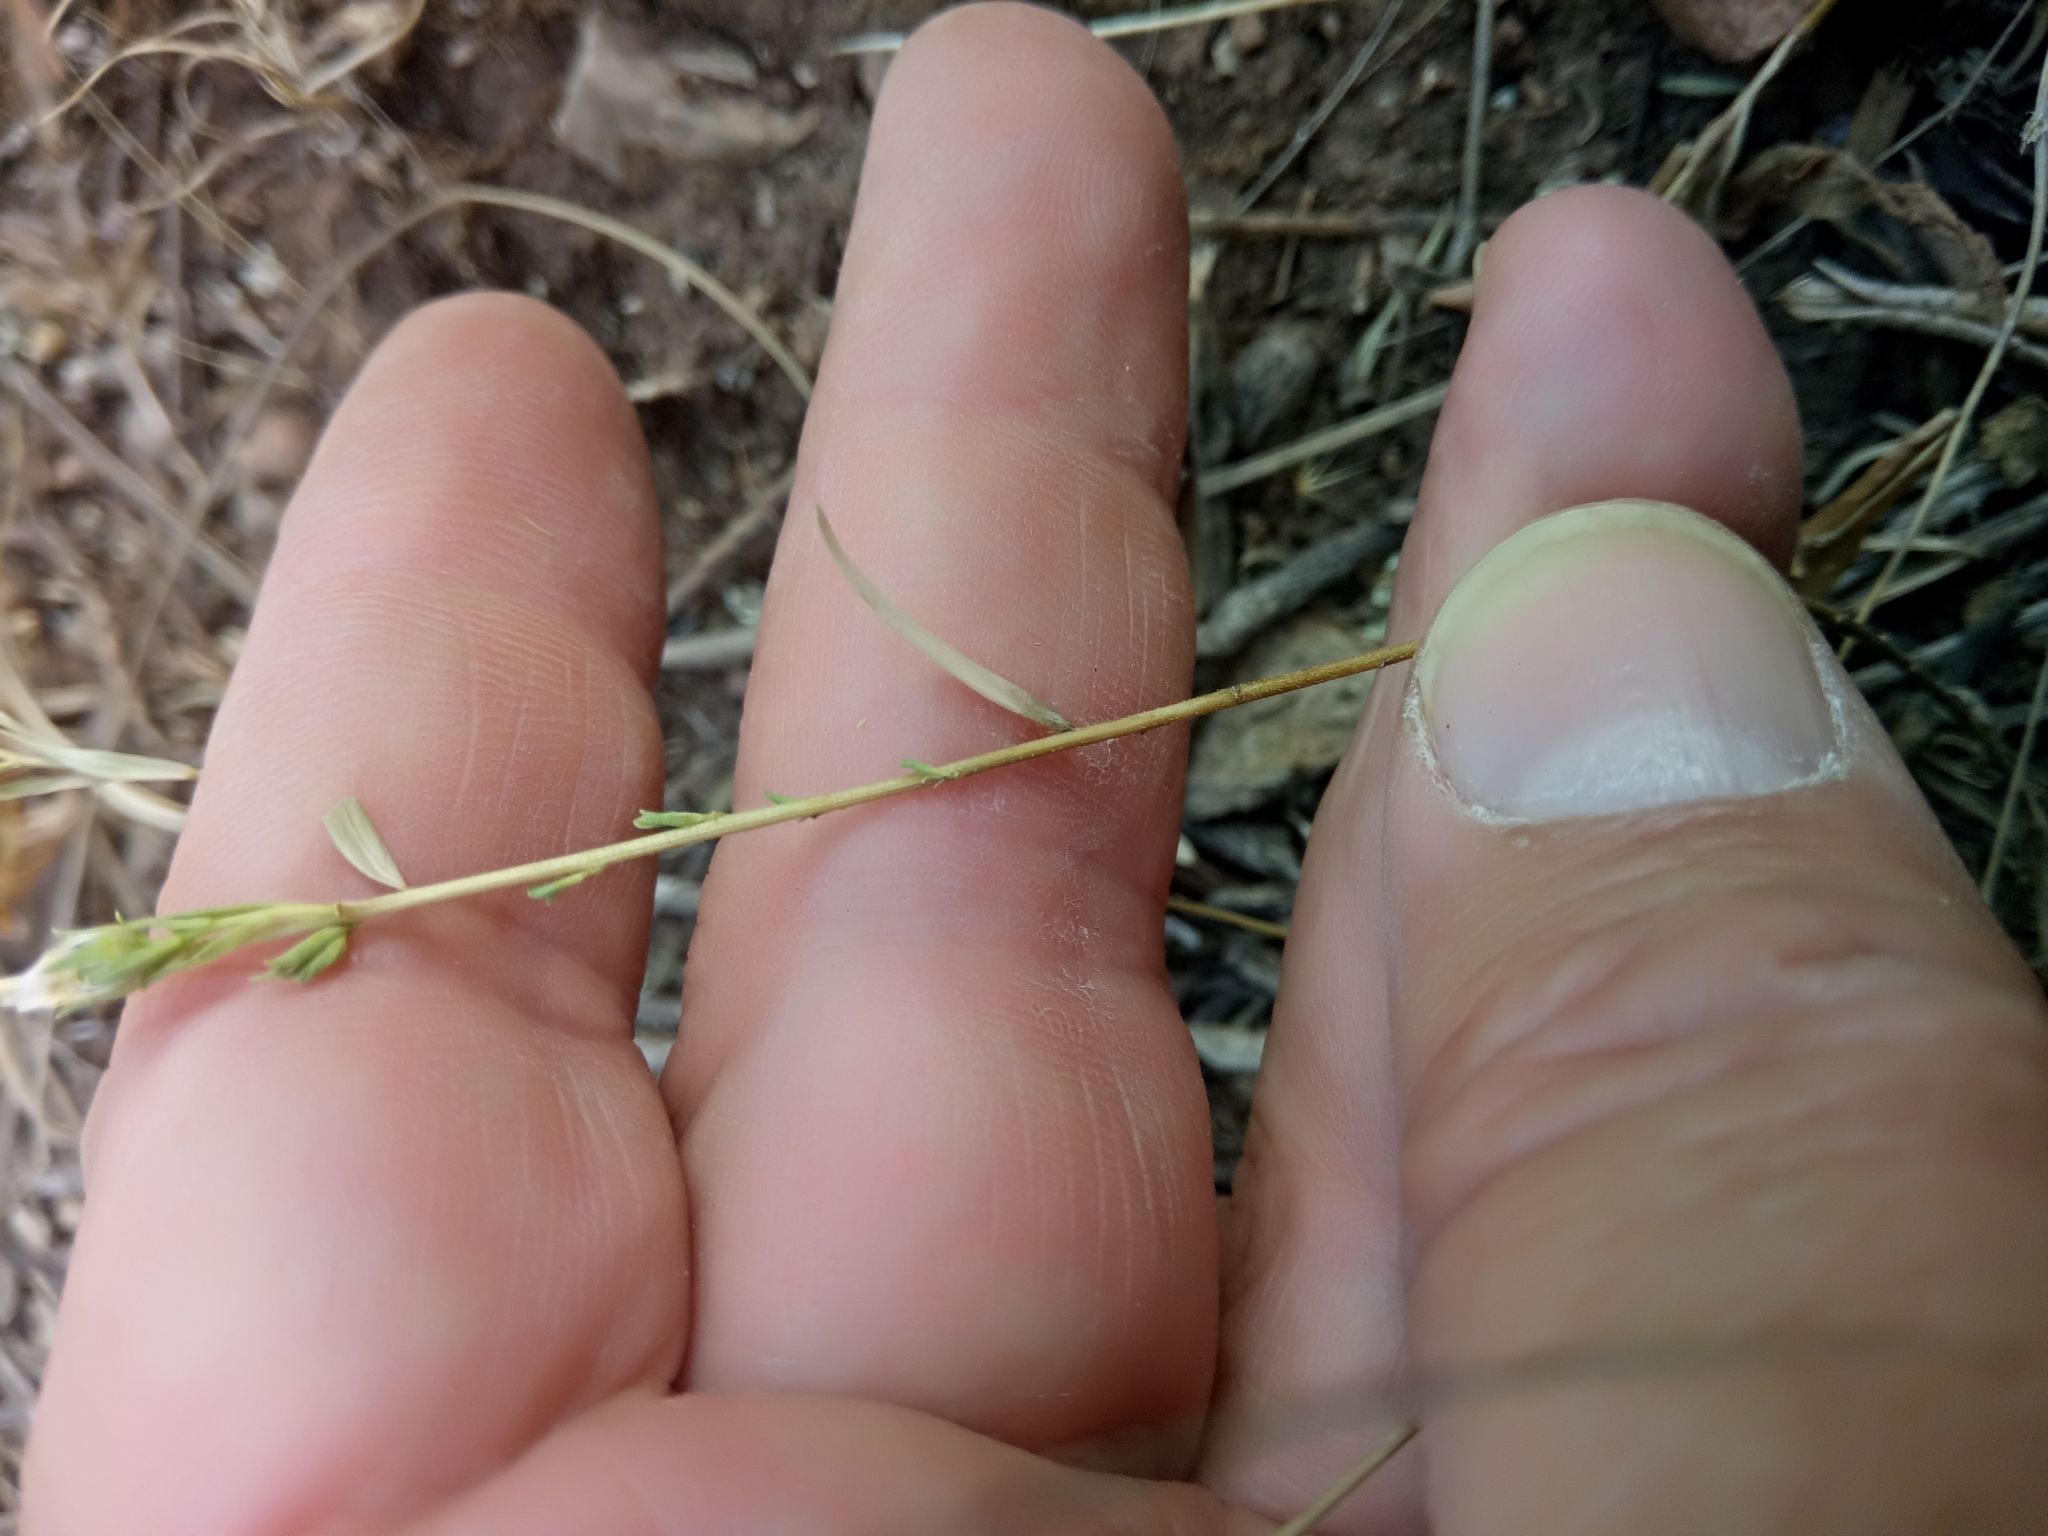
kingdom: Plantae
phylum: Tracheophyta
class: Magnoliopsida
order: Malpighiales
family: Linaceae
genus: Linum
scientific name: Linum strictum
